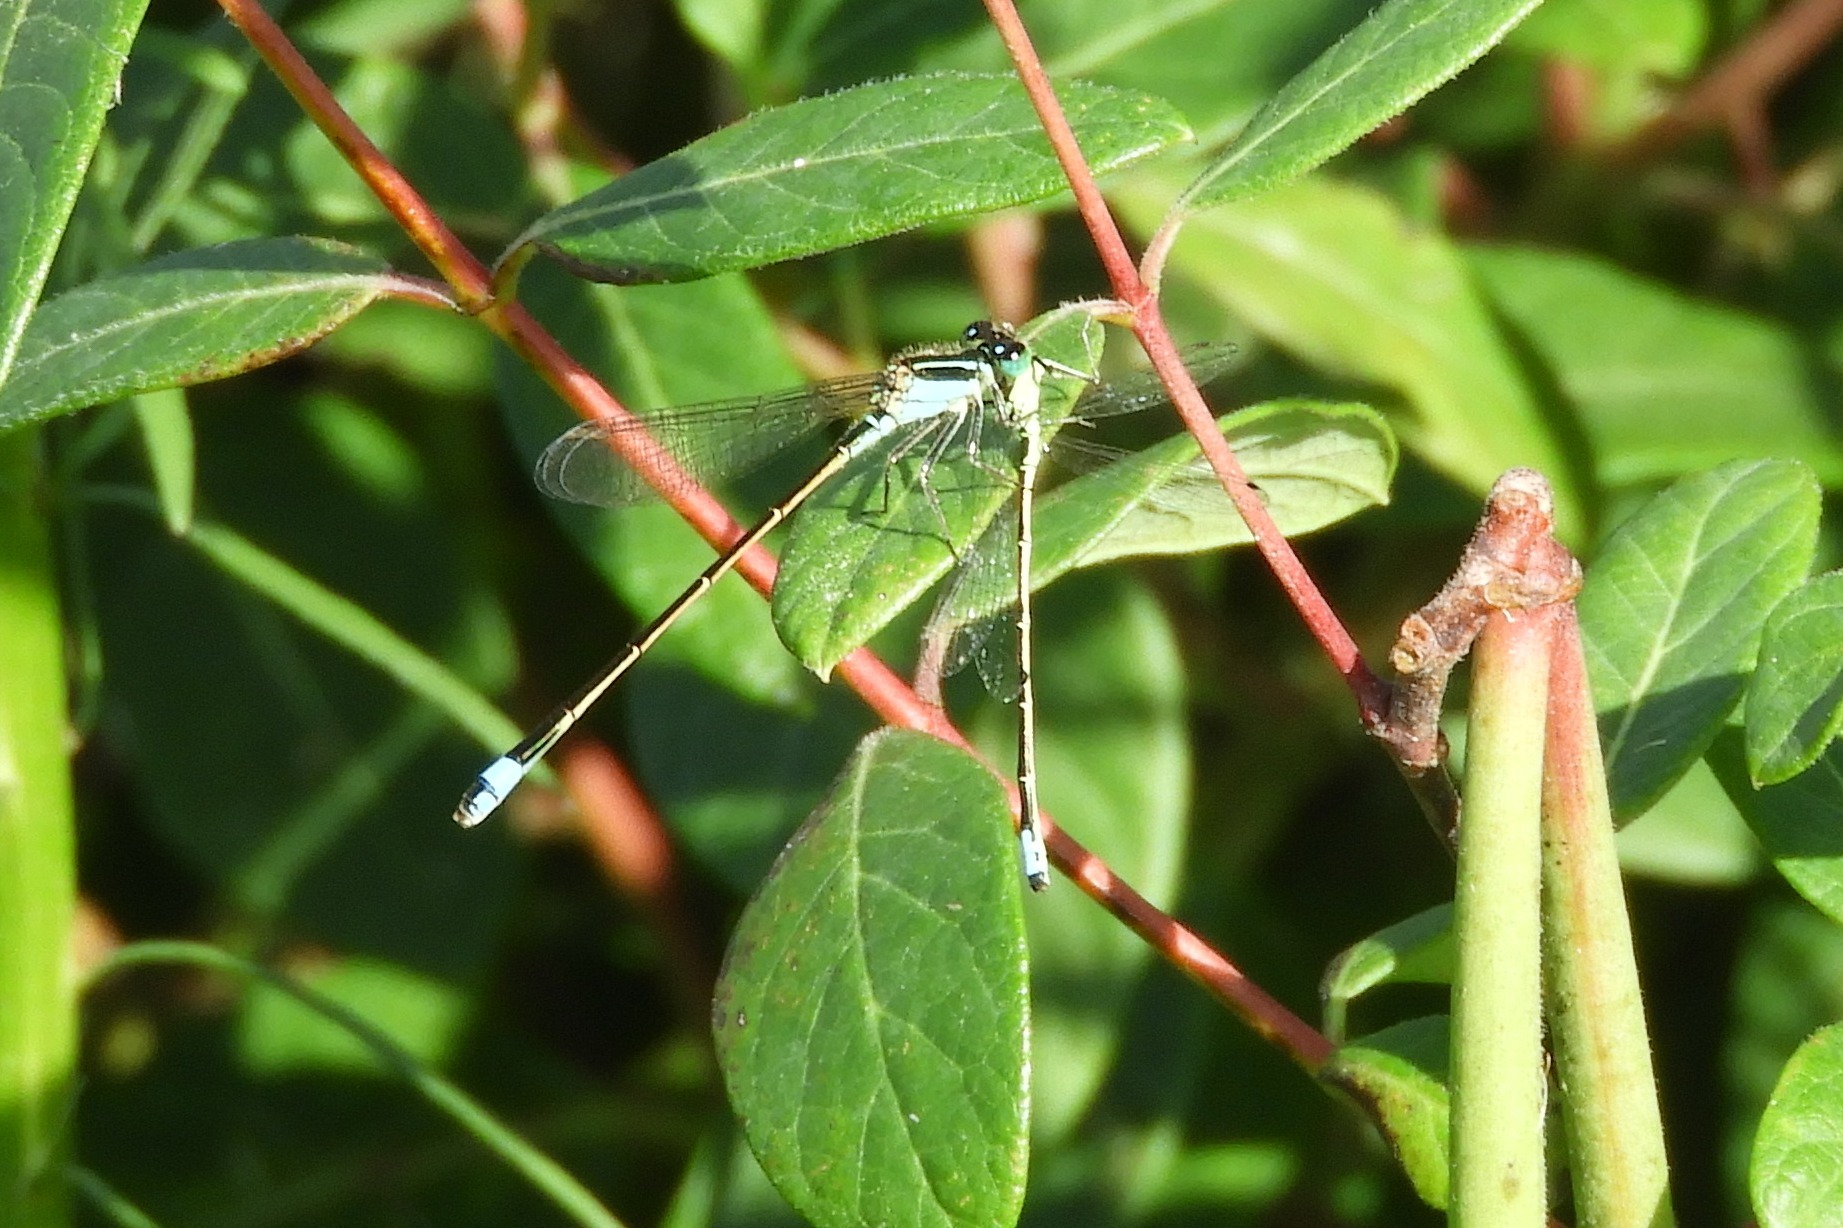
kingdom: Animalia
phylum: Arthropoda
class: Insecta
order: Odonata
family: Coenagrionidae
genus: Ischnura
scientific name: Ischnura ramburii
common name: Rambur's forktail
